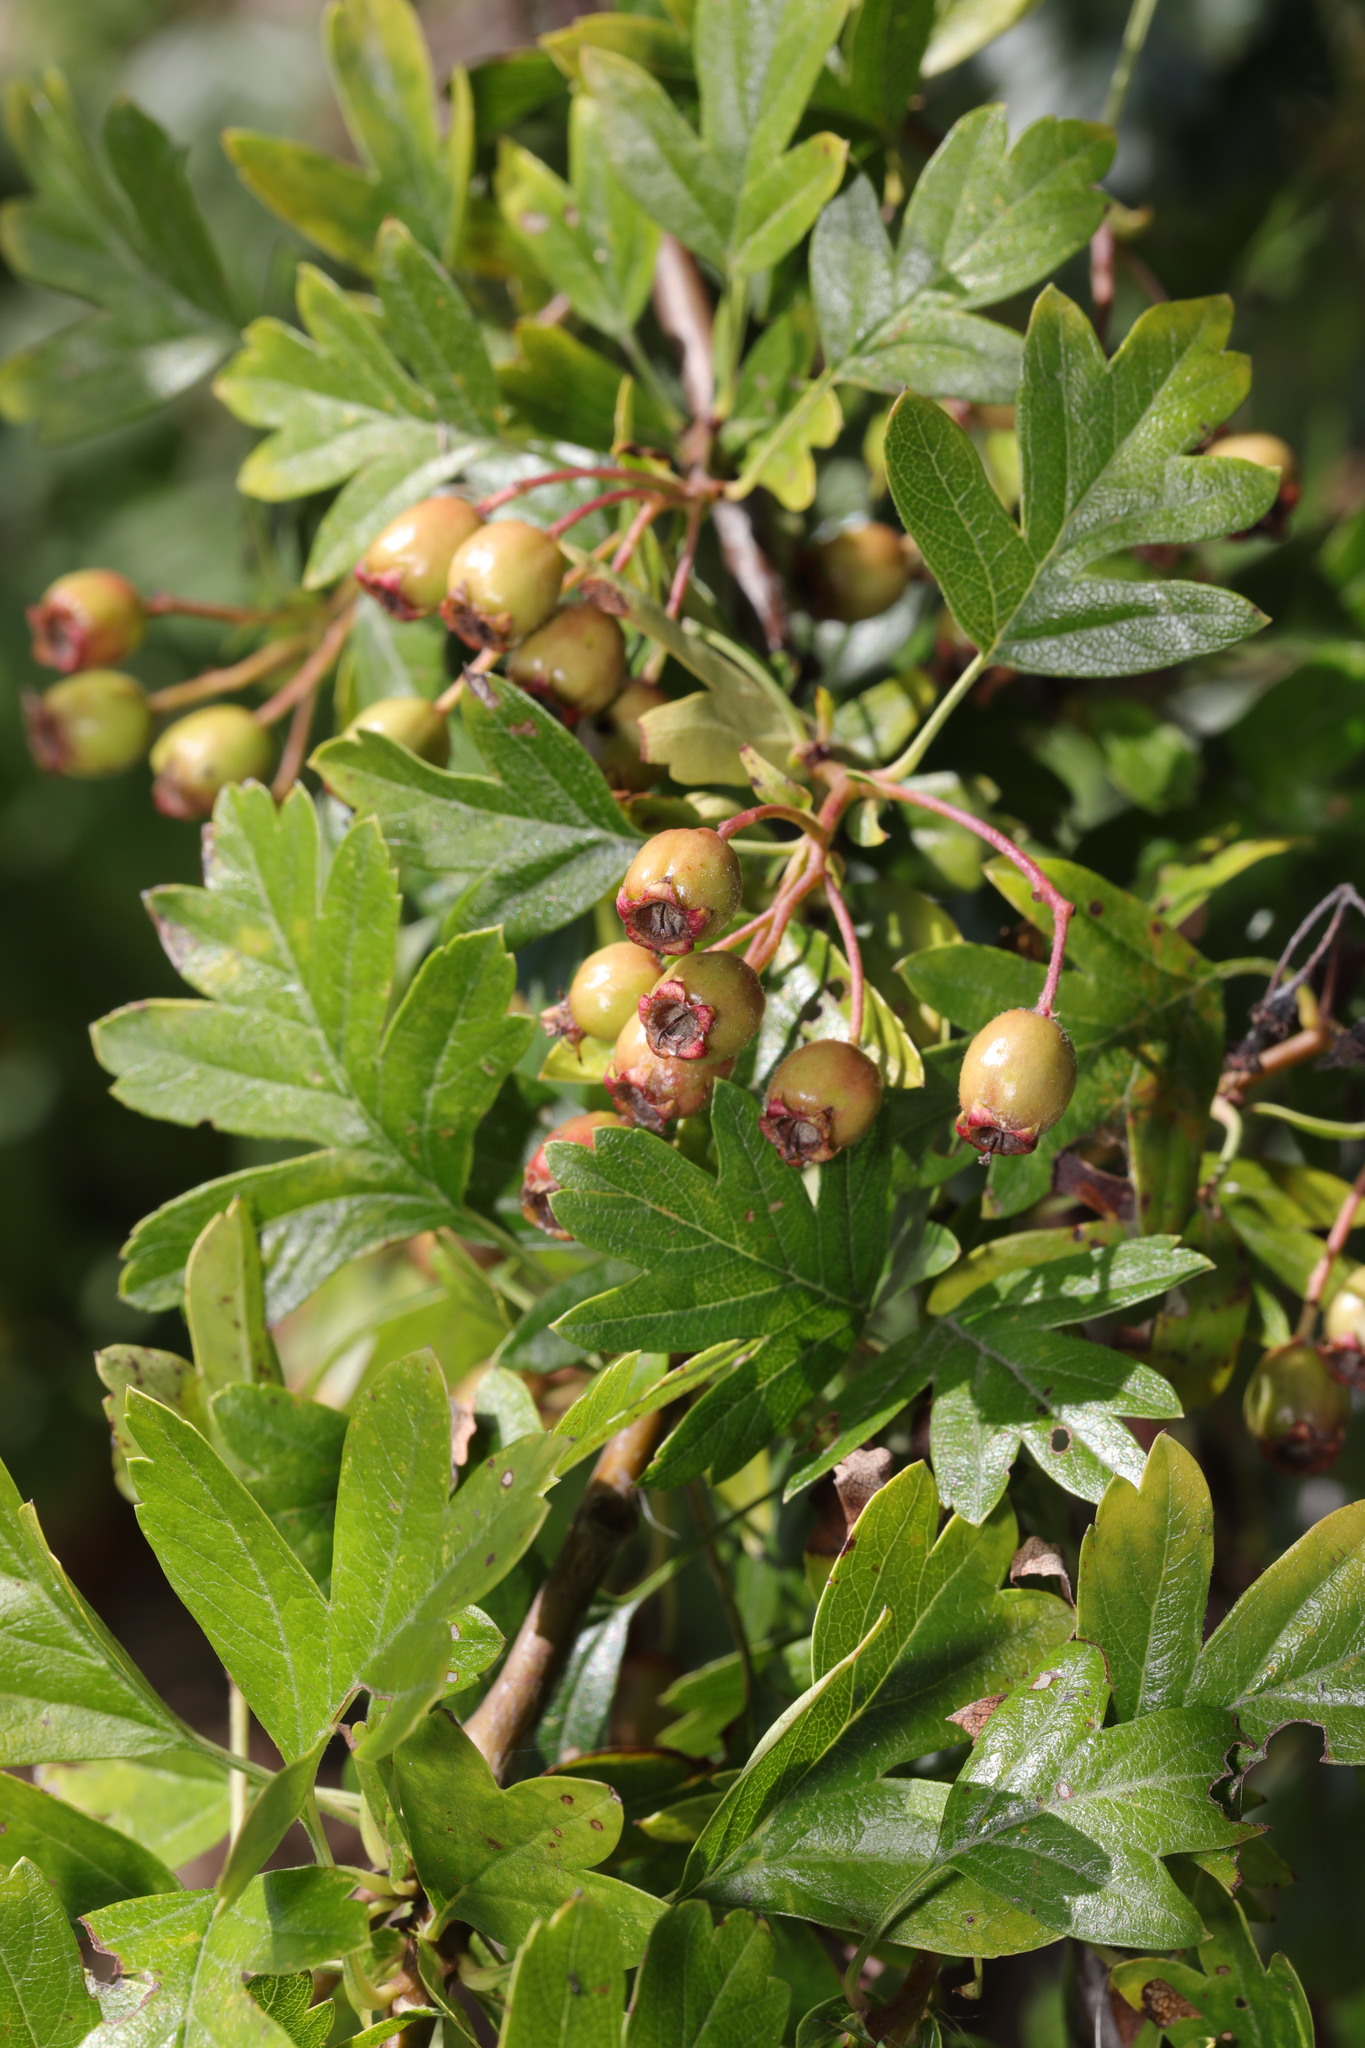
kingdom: Plantae
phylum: Tracheophyta
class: Magnoliopsida
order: Rosales
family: Rosaceae
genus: Crataegus
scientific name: Crataegus monogyna
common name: Hawthorn
